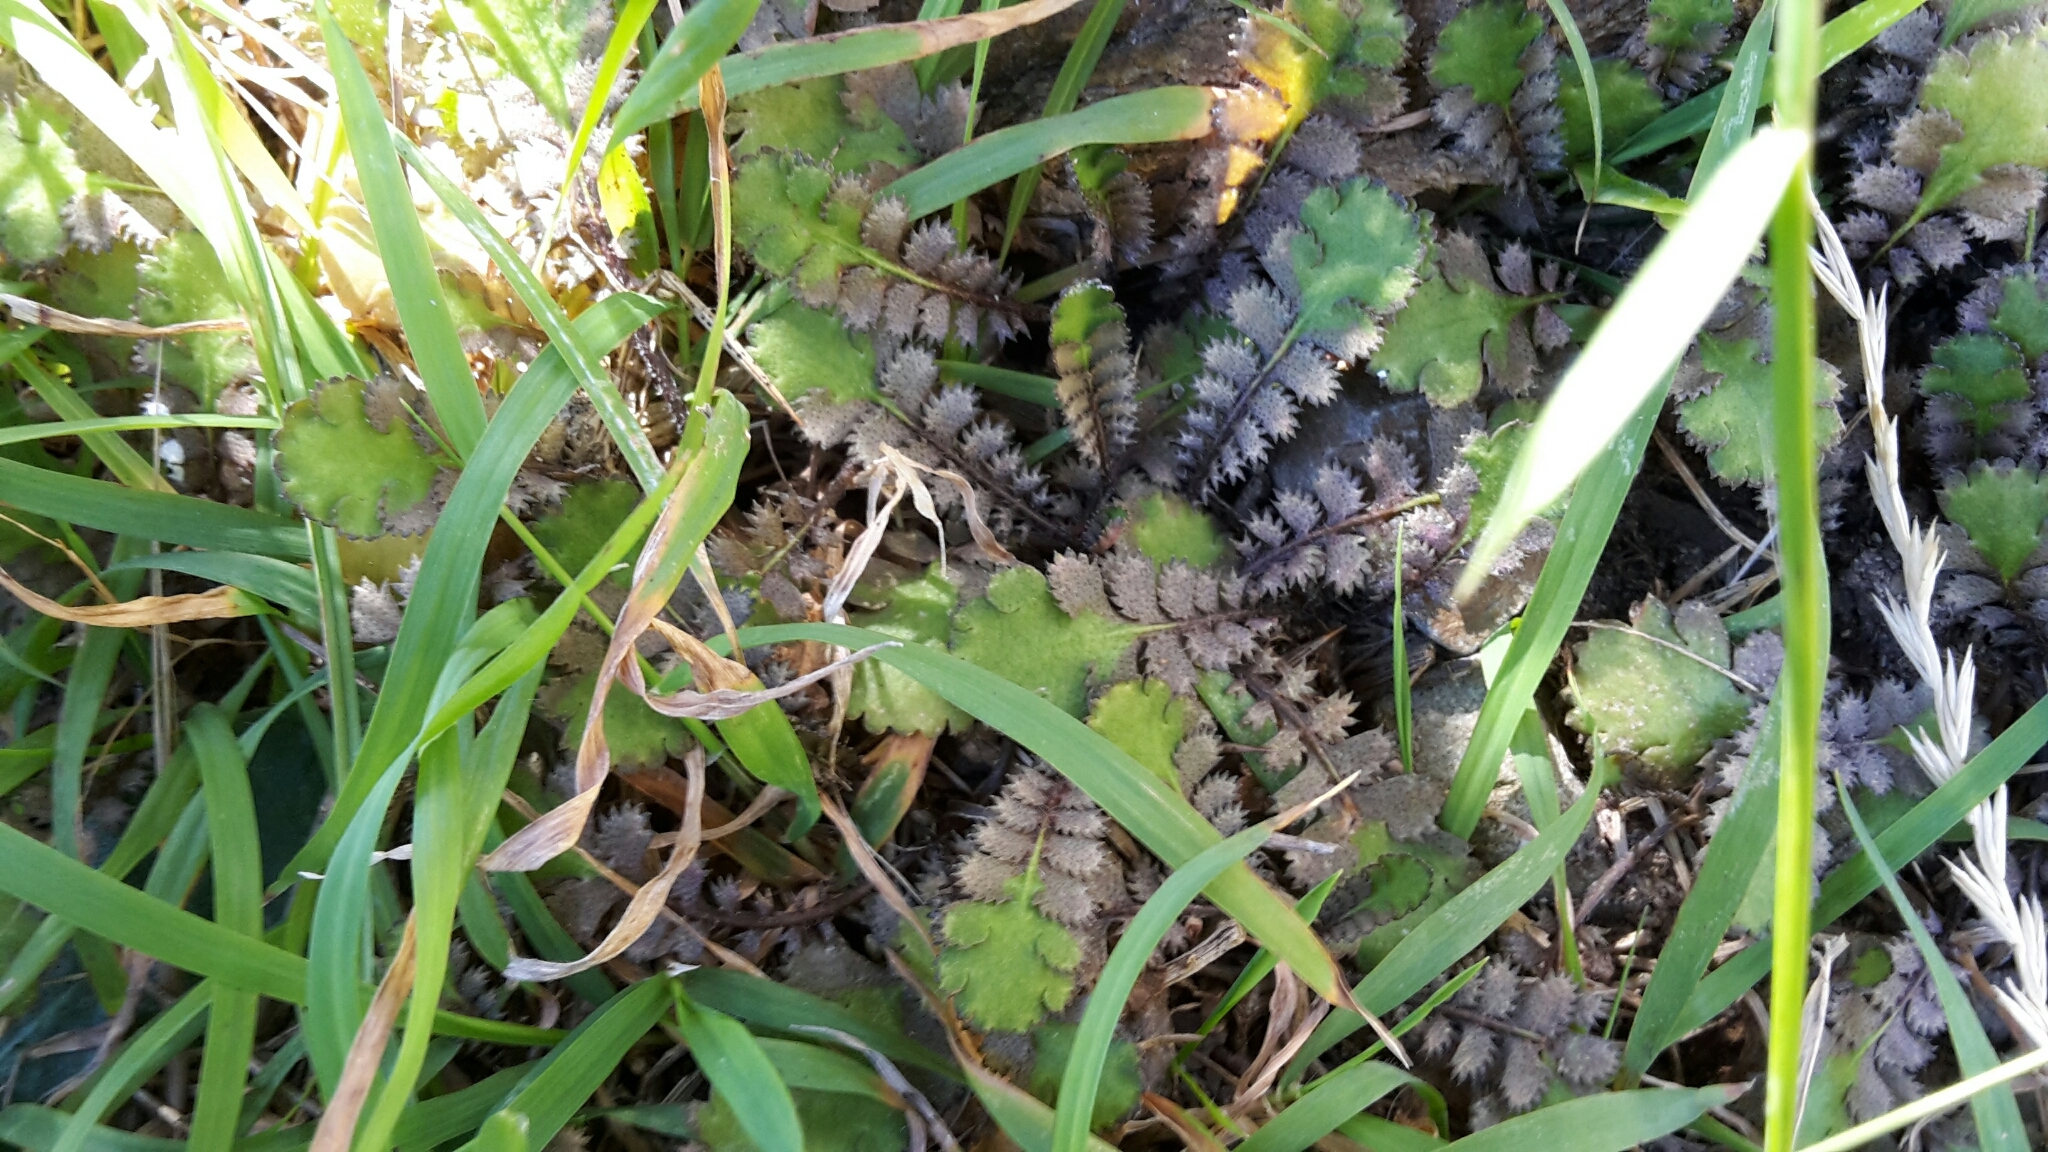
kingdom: Plantae
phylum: Tracheophyta
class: Magnoliopsida
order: Asterales
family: Asteraceae
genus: Leptinella
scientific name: Leptinella squalida
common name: New zealand brass-buttons
